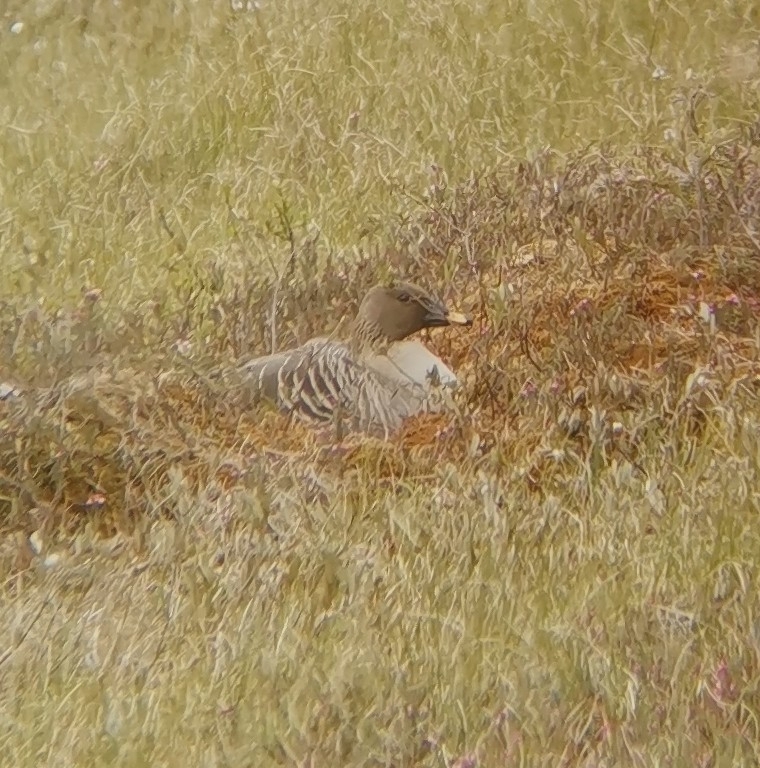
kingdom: Animalia
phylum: Chordata
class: Aves
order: Anseriformes
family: Anatidae
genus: Anser
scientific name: Anser fabalis
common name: Bean goose
